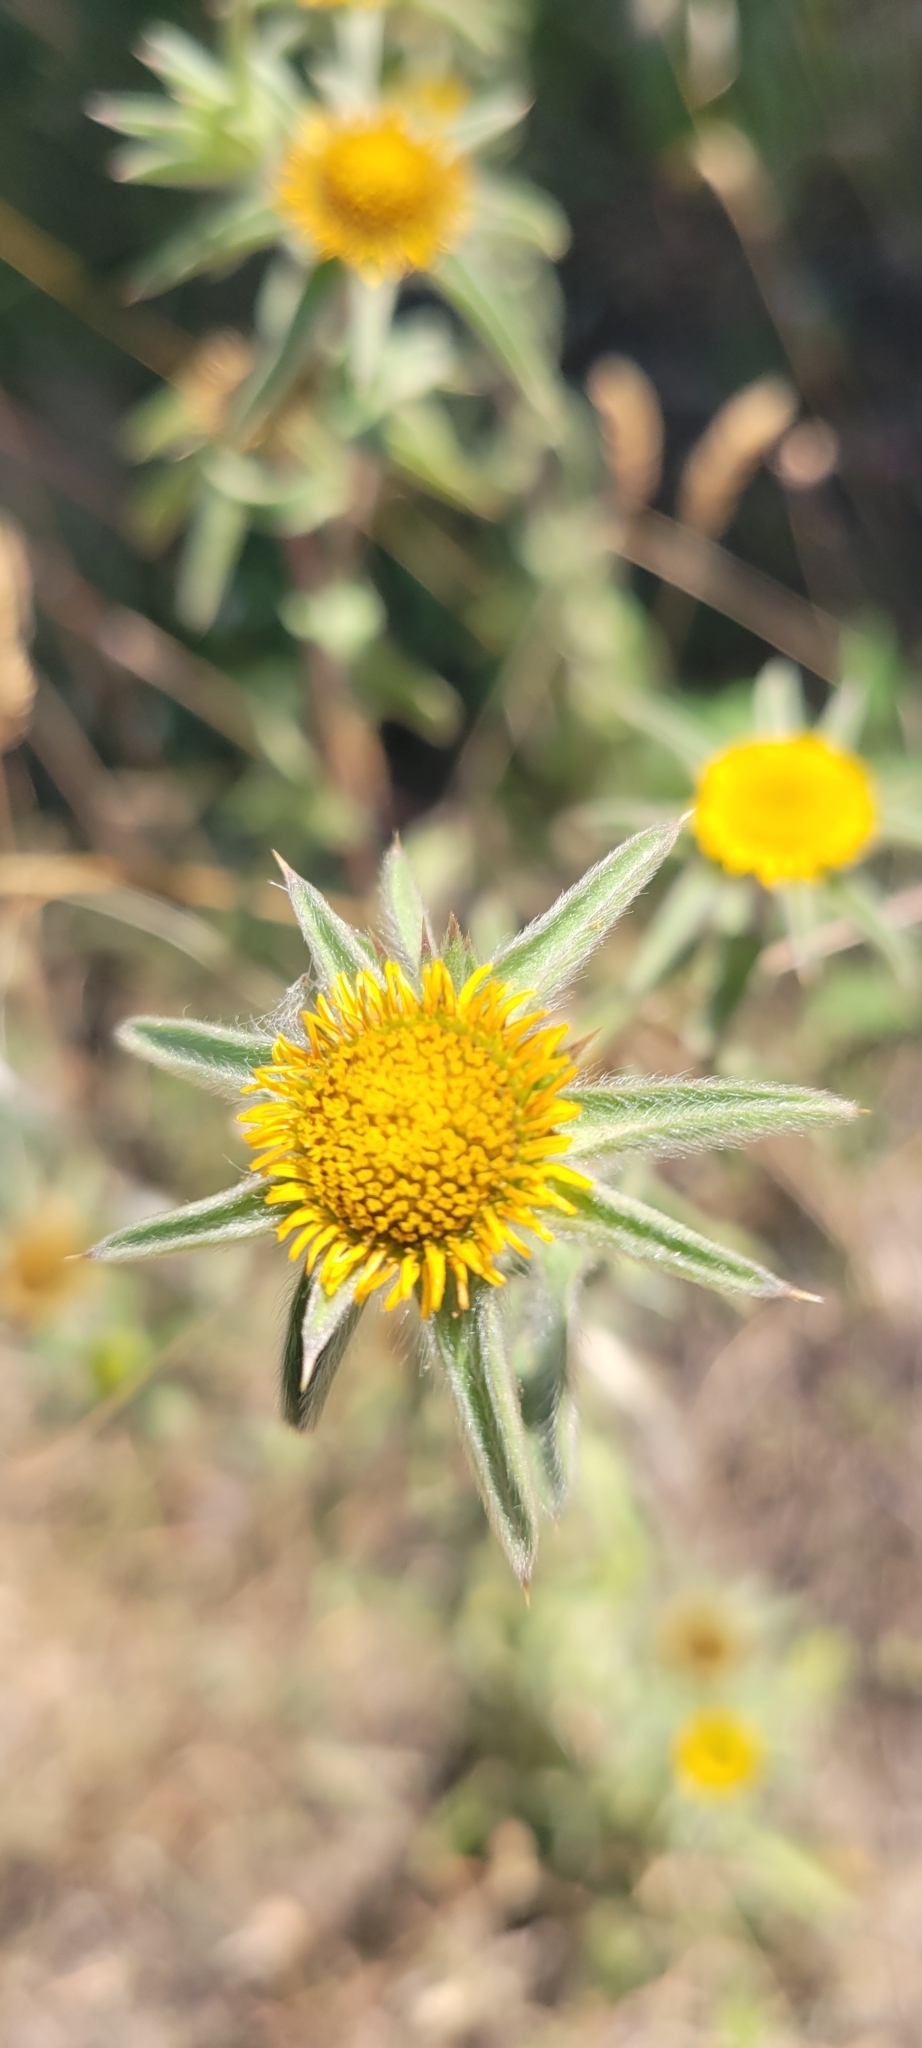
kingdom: Plantae
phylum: Tracheophyta
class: Magnoliopsida
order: Asterales
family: Asteraceae
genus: Pallenis
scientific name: Pallenis spinosa
